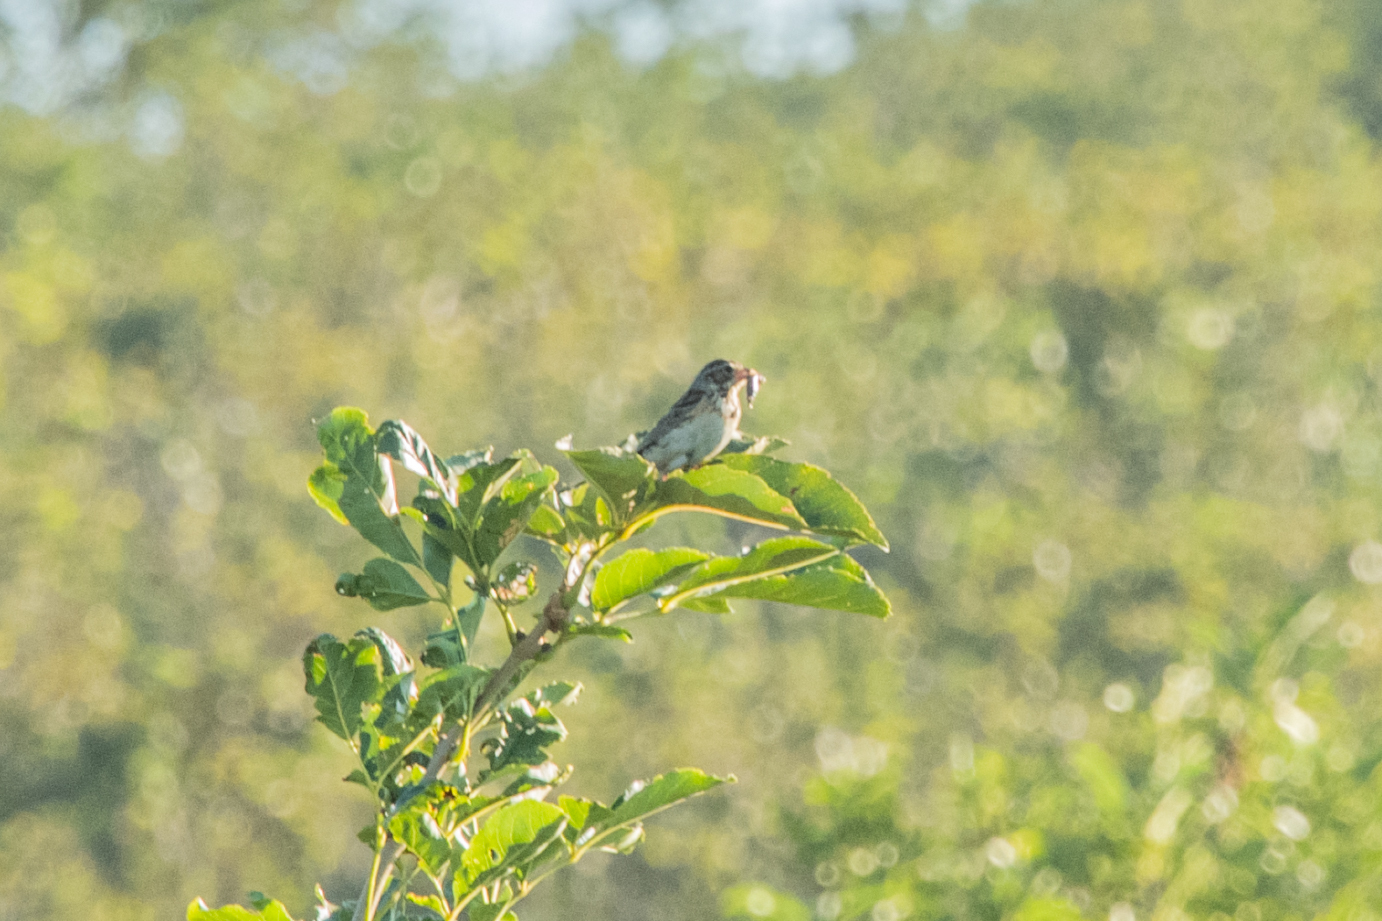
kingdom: Animalia
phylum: Chordata
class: Aves
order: Passeriformes
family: Emberizidae
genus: Emberiza
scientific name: Emberiza fucata
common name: Chestnut-eared bunting
